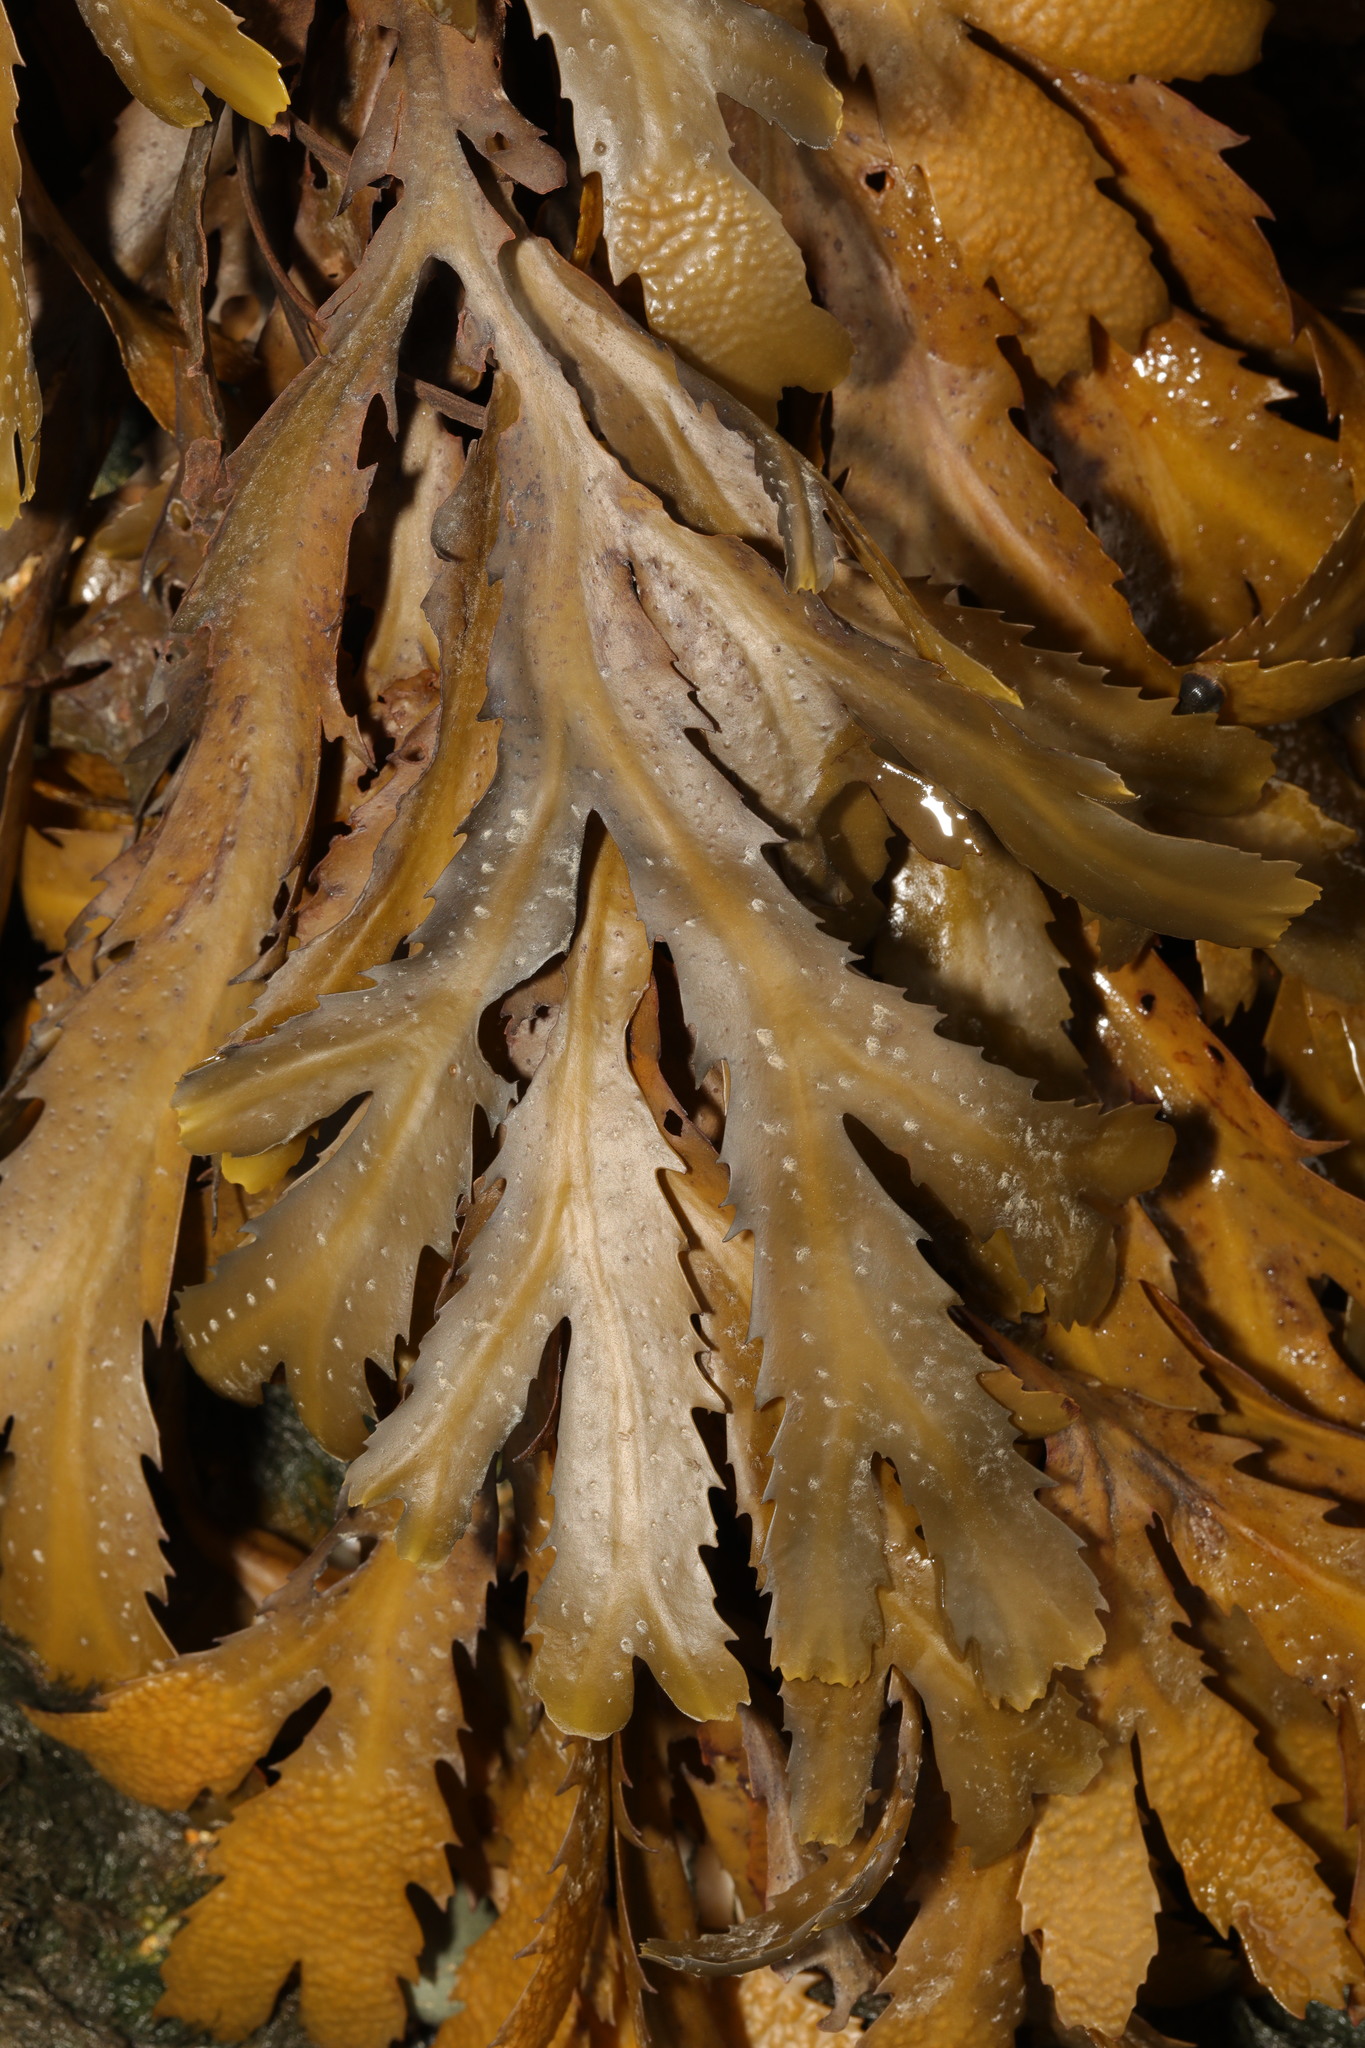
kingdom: Chromista
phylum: Ochrophyta
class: Phaeophyceae
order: Fucales
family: Fucaceae
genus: Fucus
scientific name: Fucus serratus
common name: Toothed wrack
